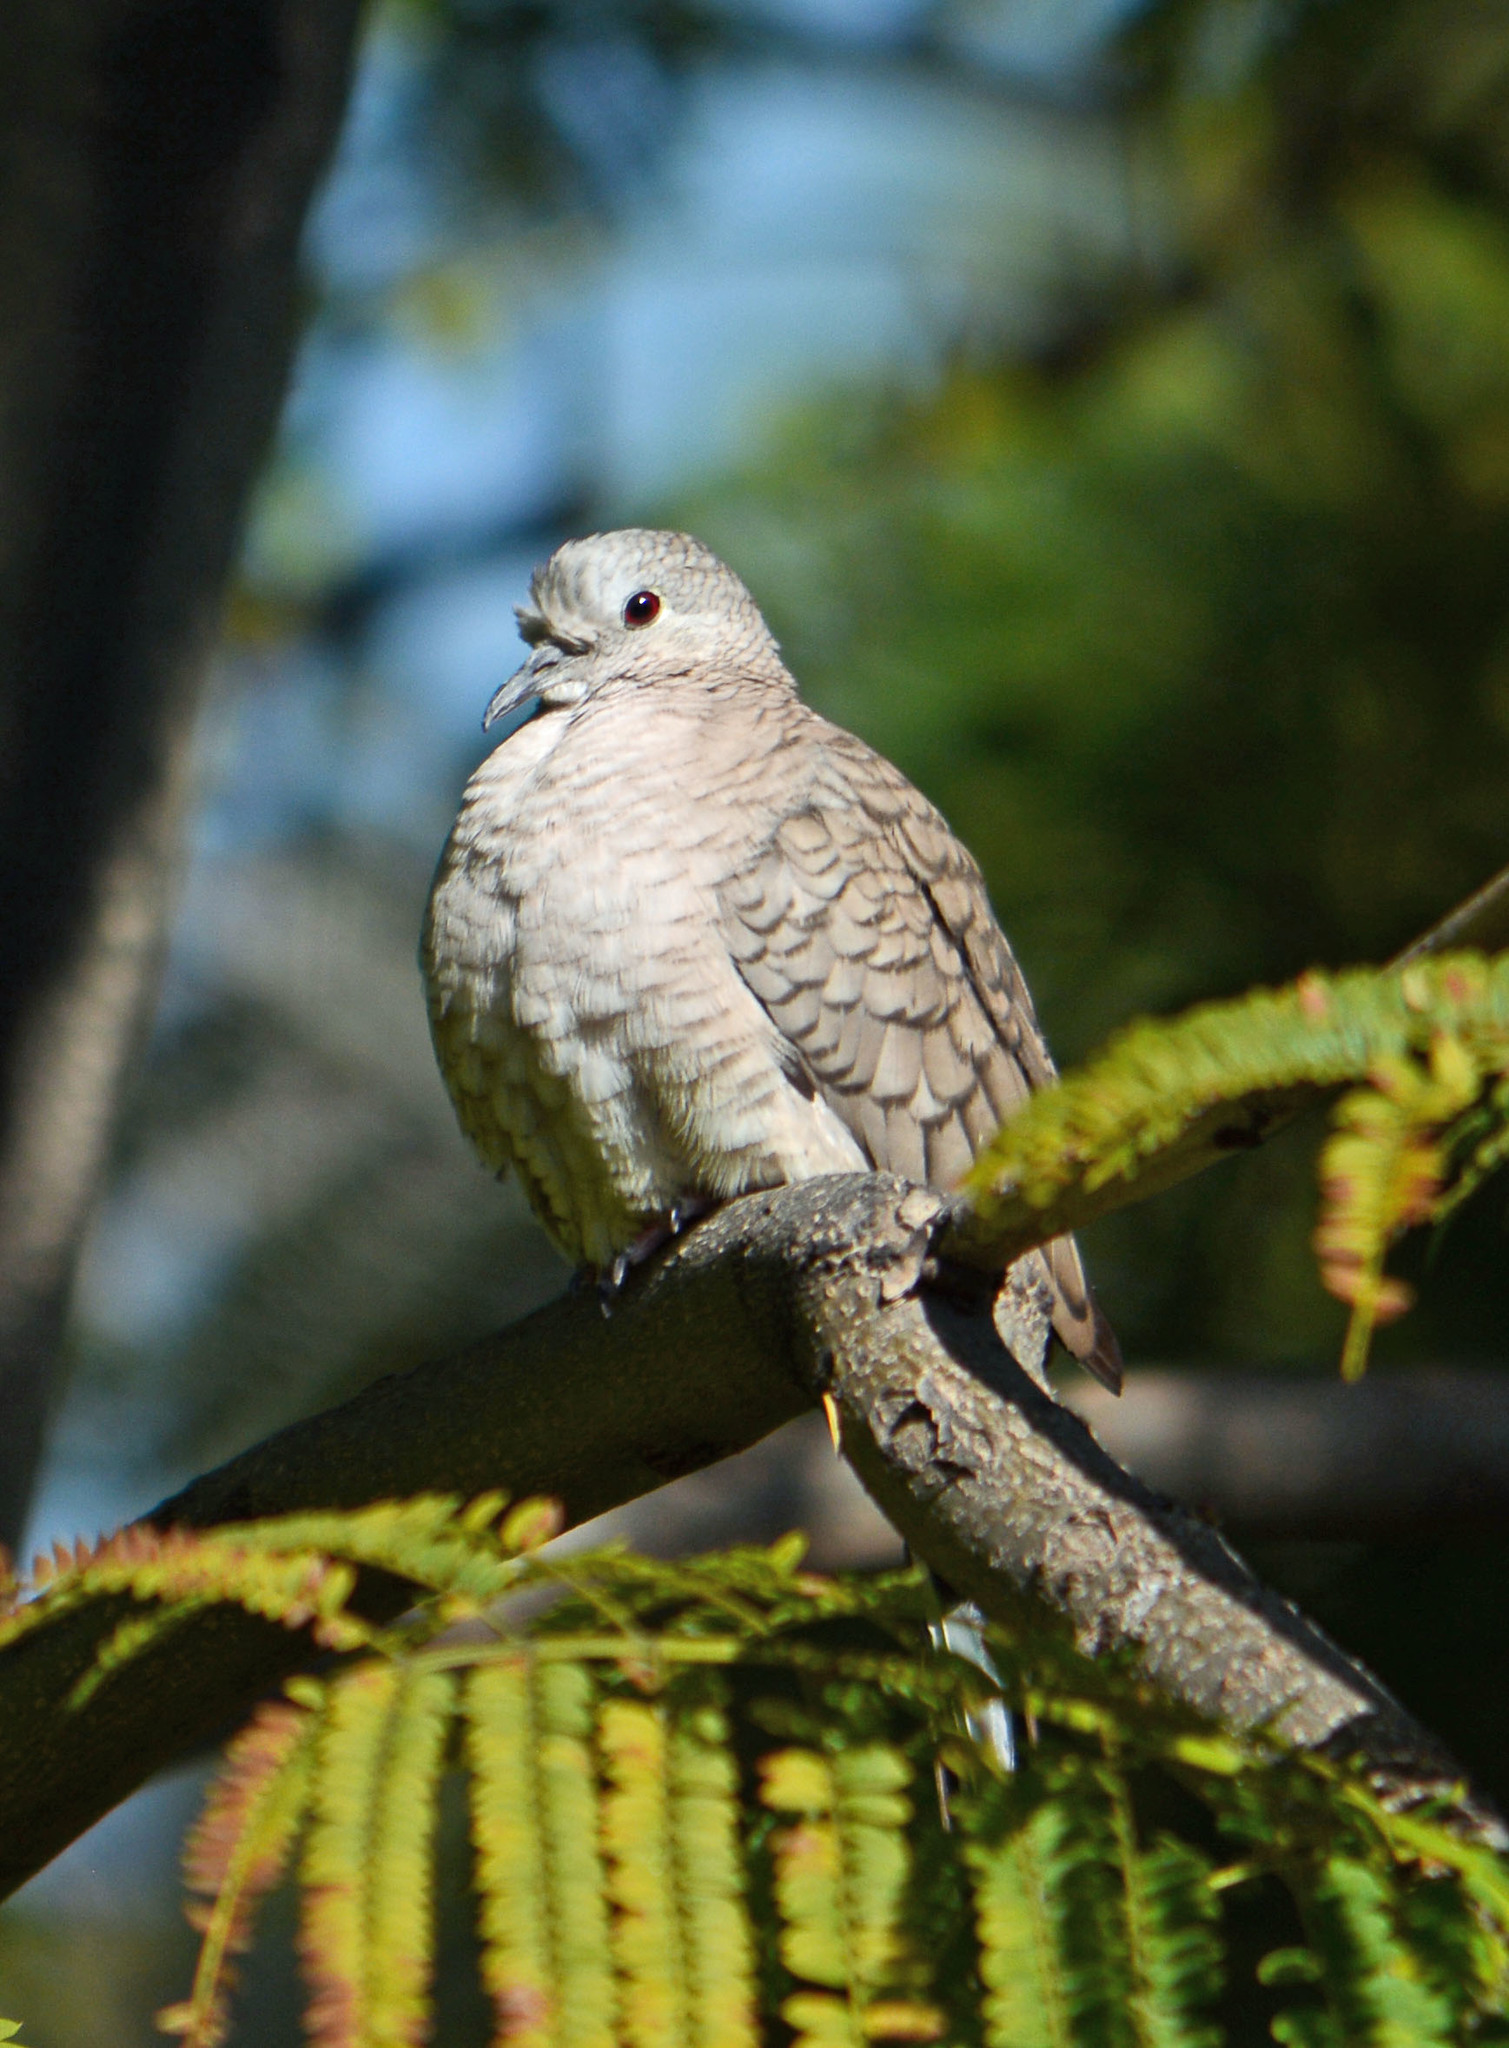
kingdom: Animalia
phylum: Chordata
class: Aves
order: Columbiformes
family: Columbidae
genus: Columbina
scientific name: Columbina inca
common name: Inca dove
